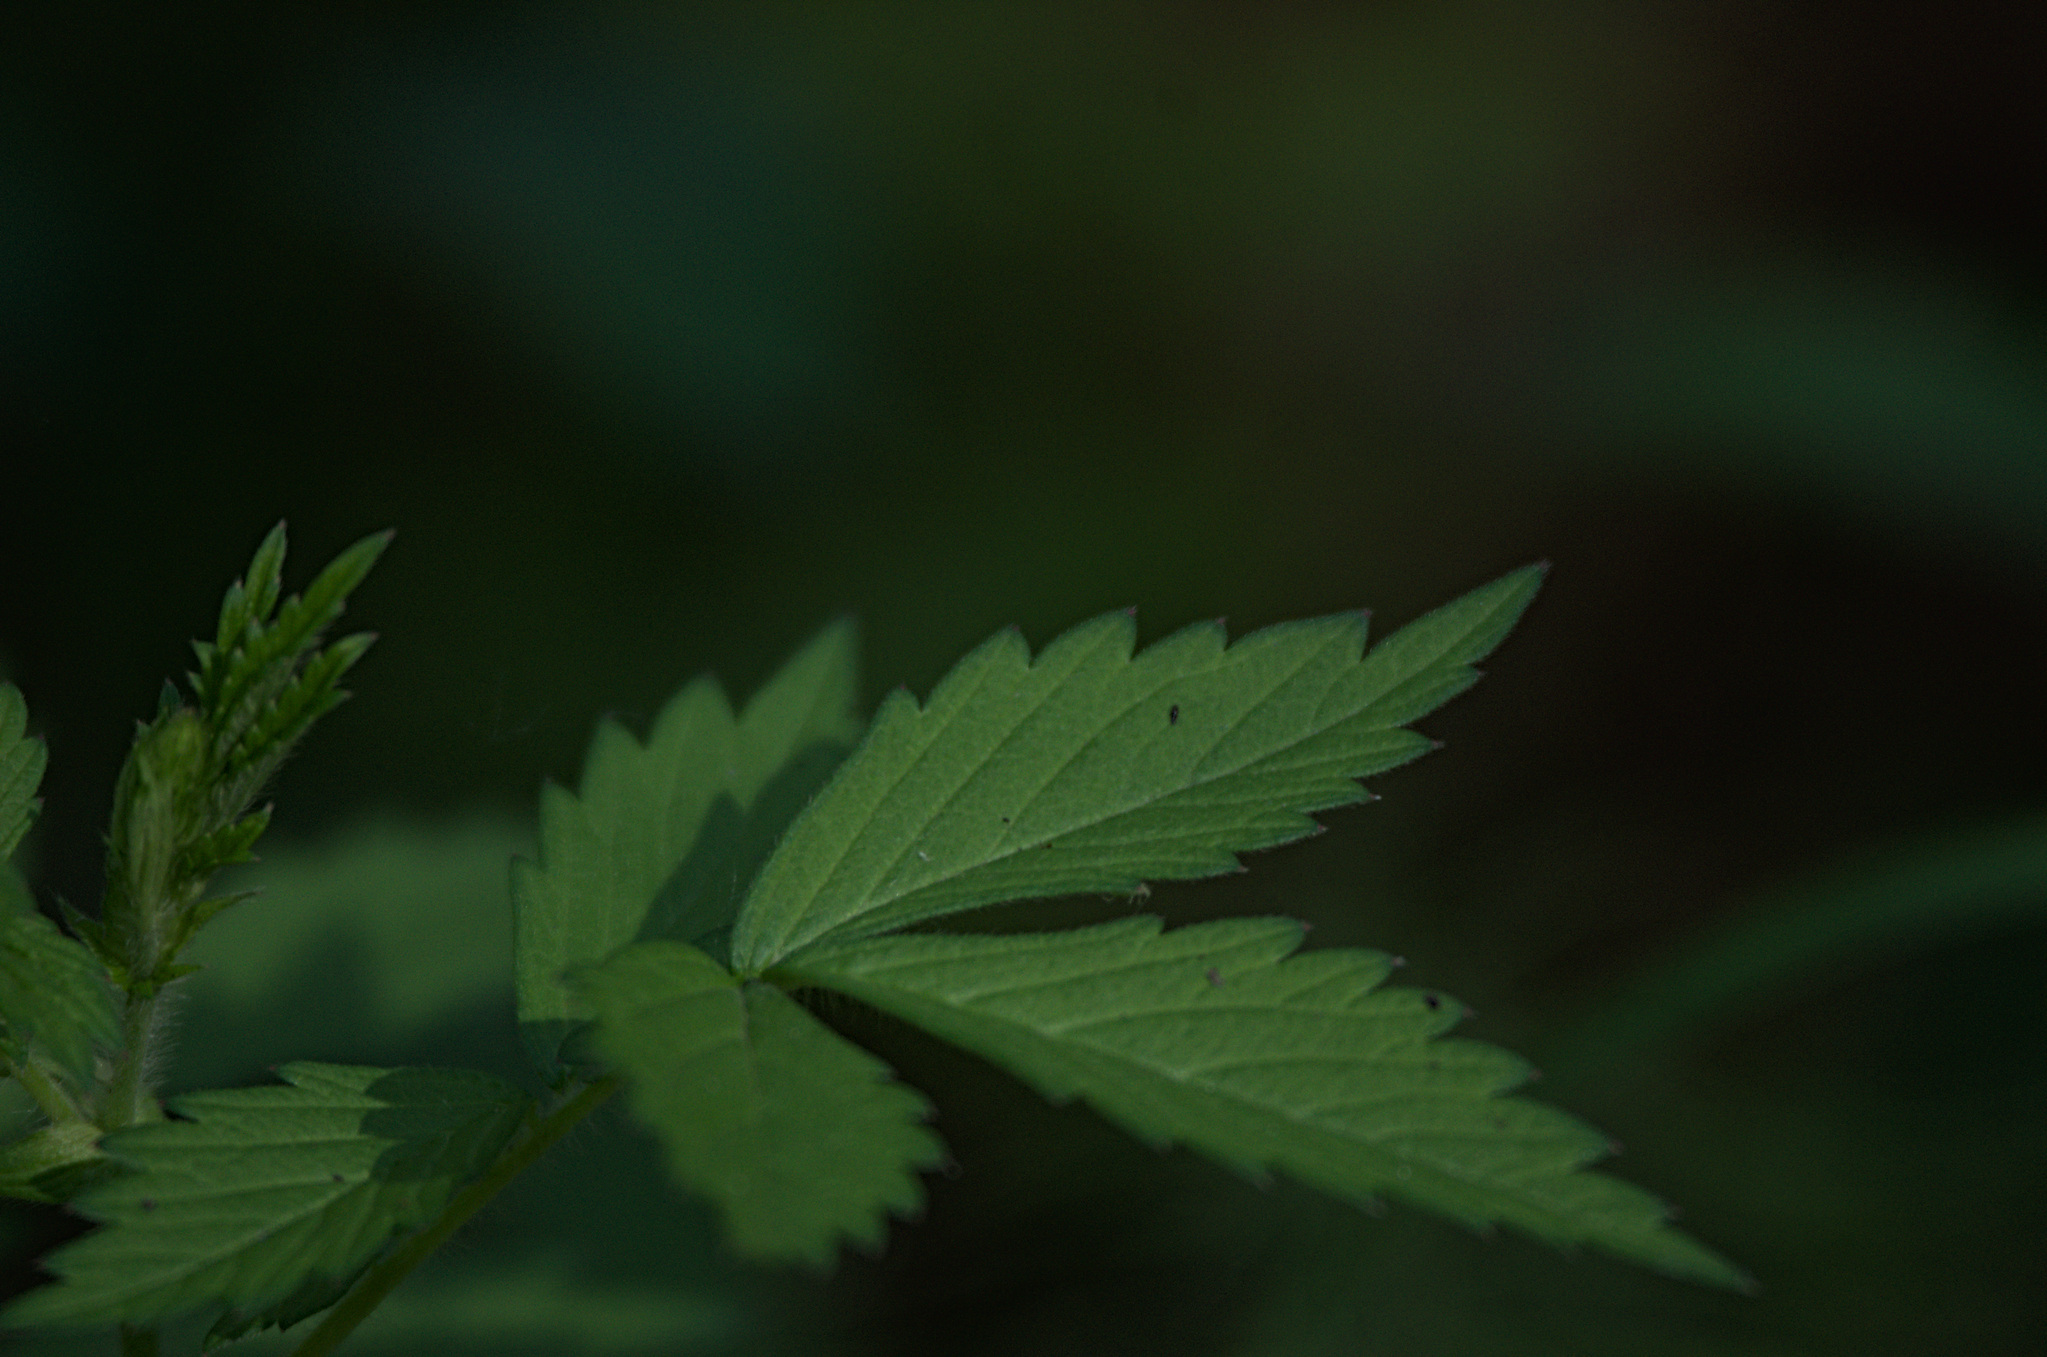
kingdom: Plantae
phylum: Tracheophyta
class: Magnoliopsida
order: Rosales
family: Rosaceae
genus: Agrimonia
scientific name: Agrimonia pilosa
